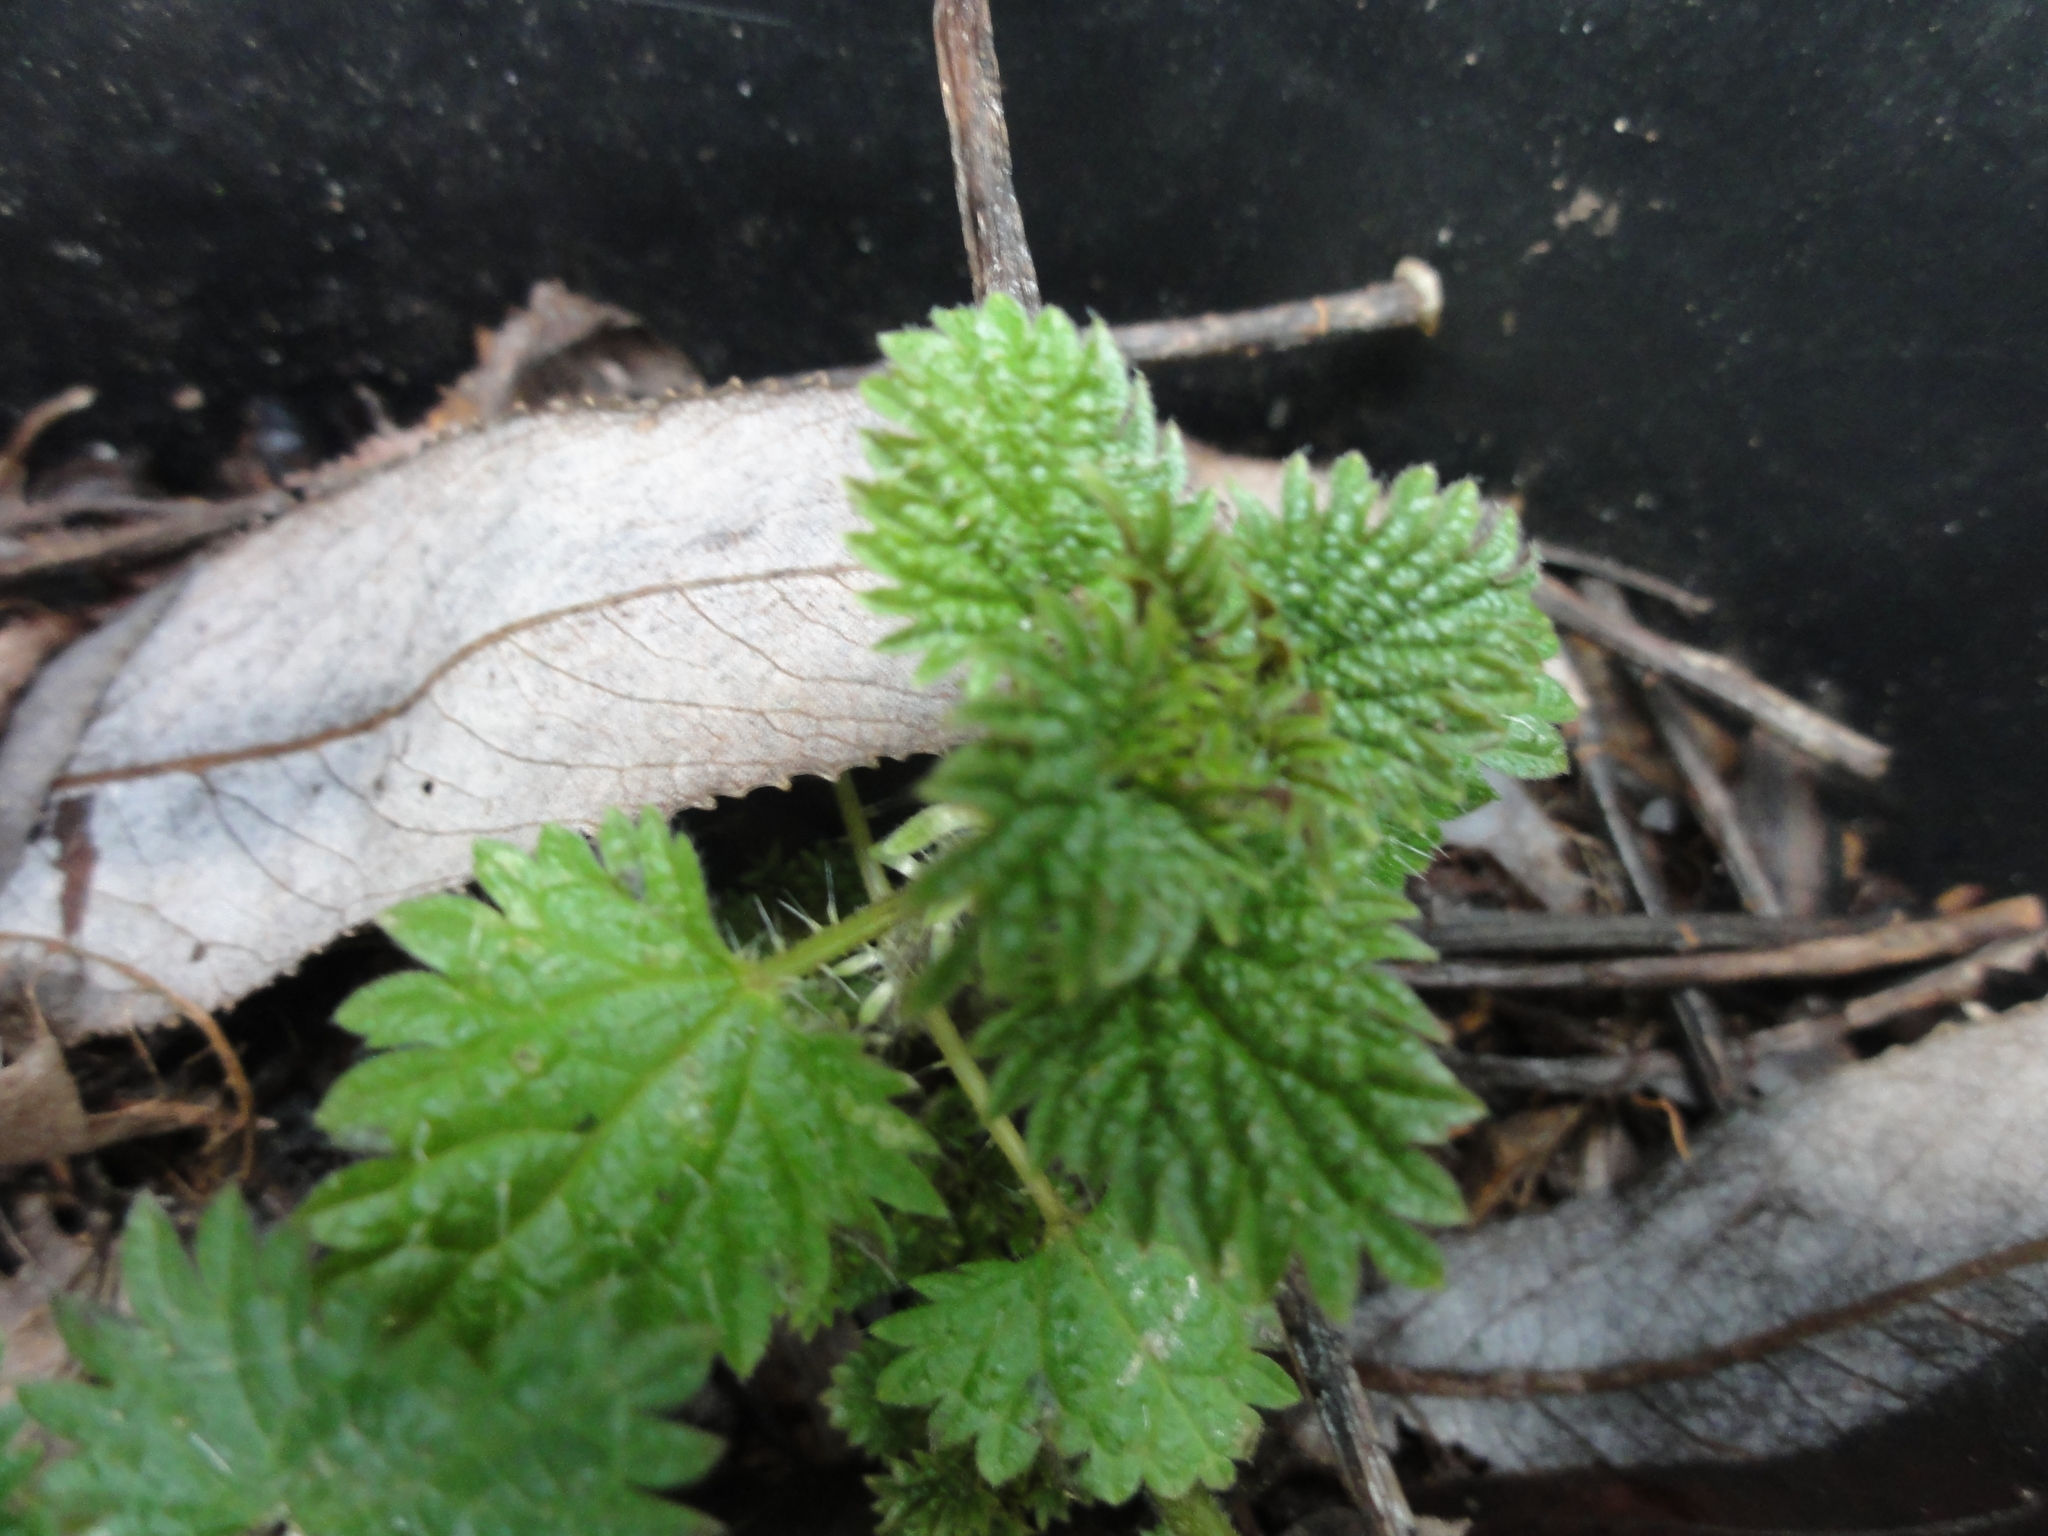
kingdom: Plantae
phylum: Tracheophyta
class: Magnoliopsida
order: Rosales
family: Urticaceae
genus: Urtica
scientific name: Urtica urens
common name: Dwarf nettle
